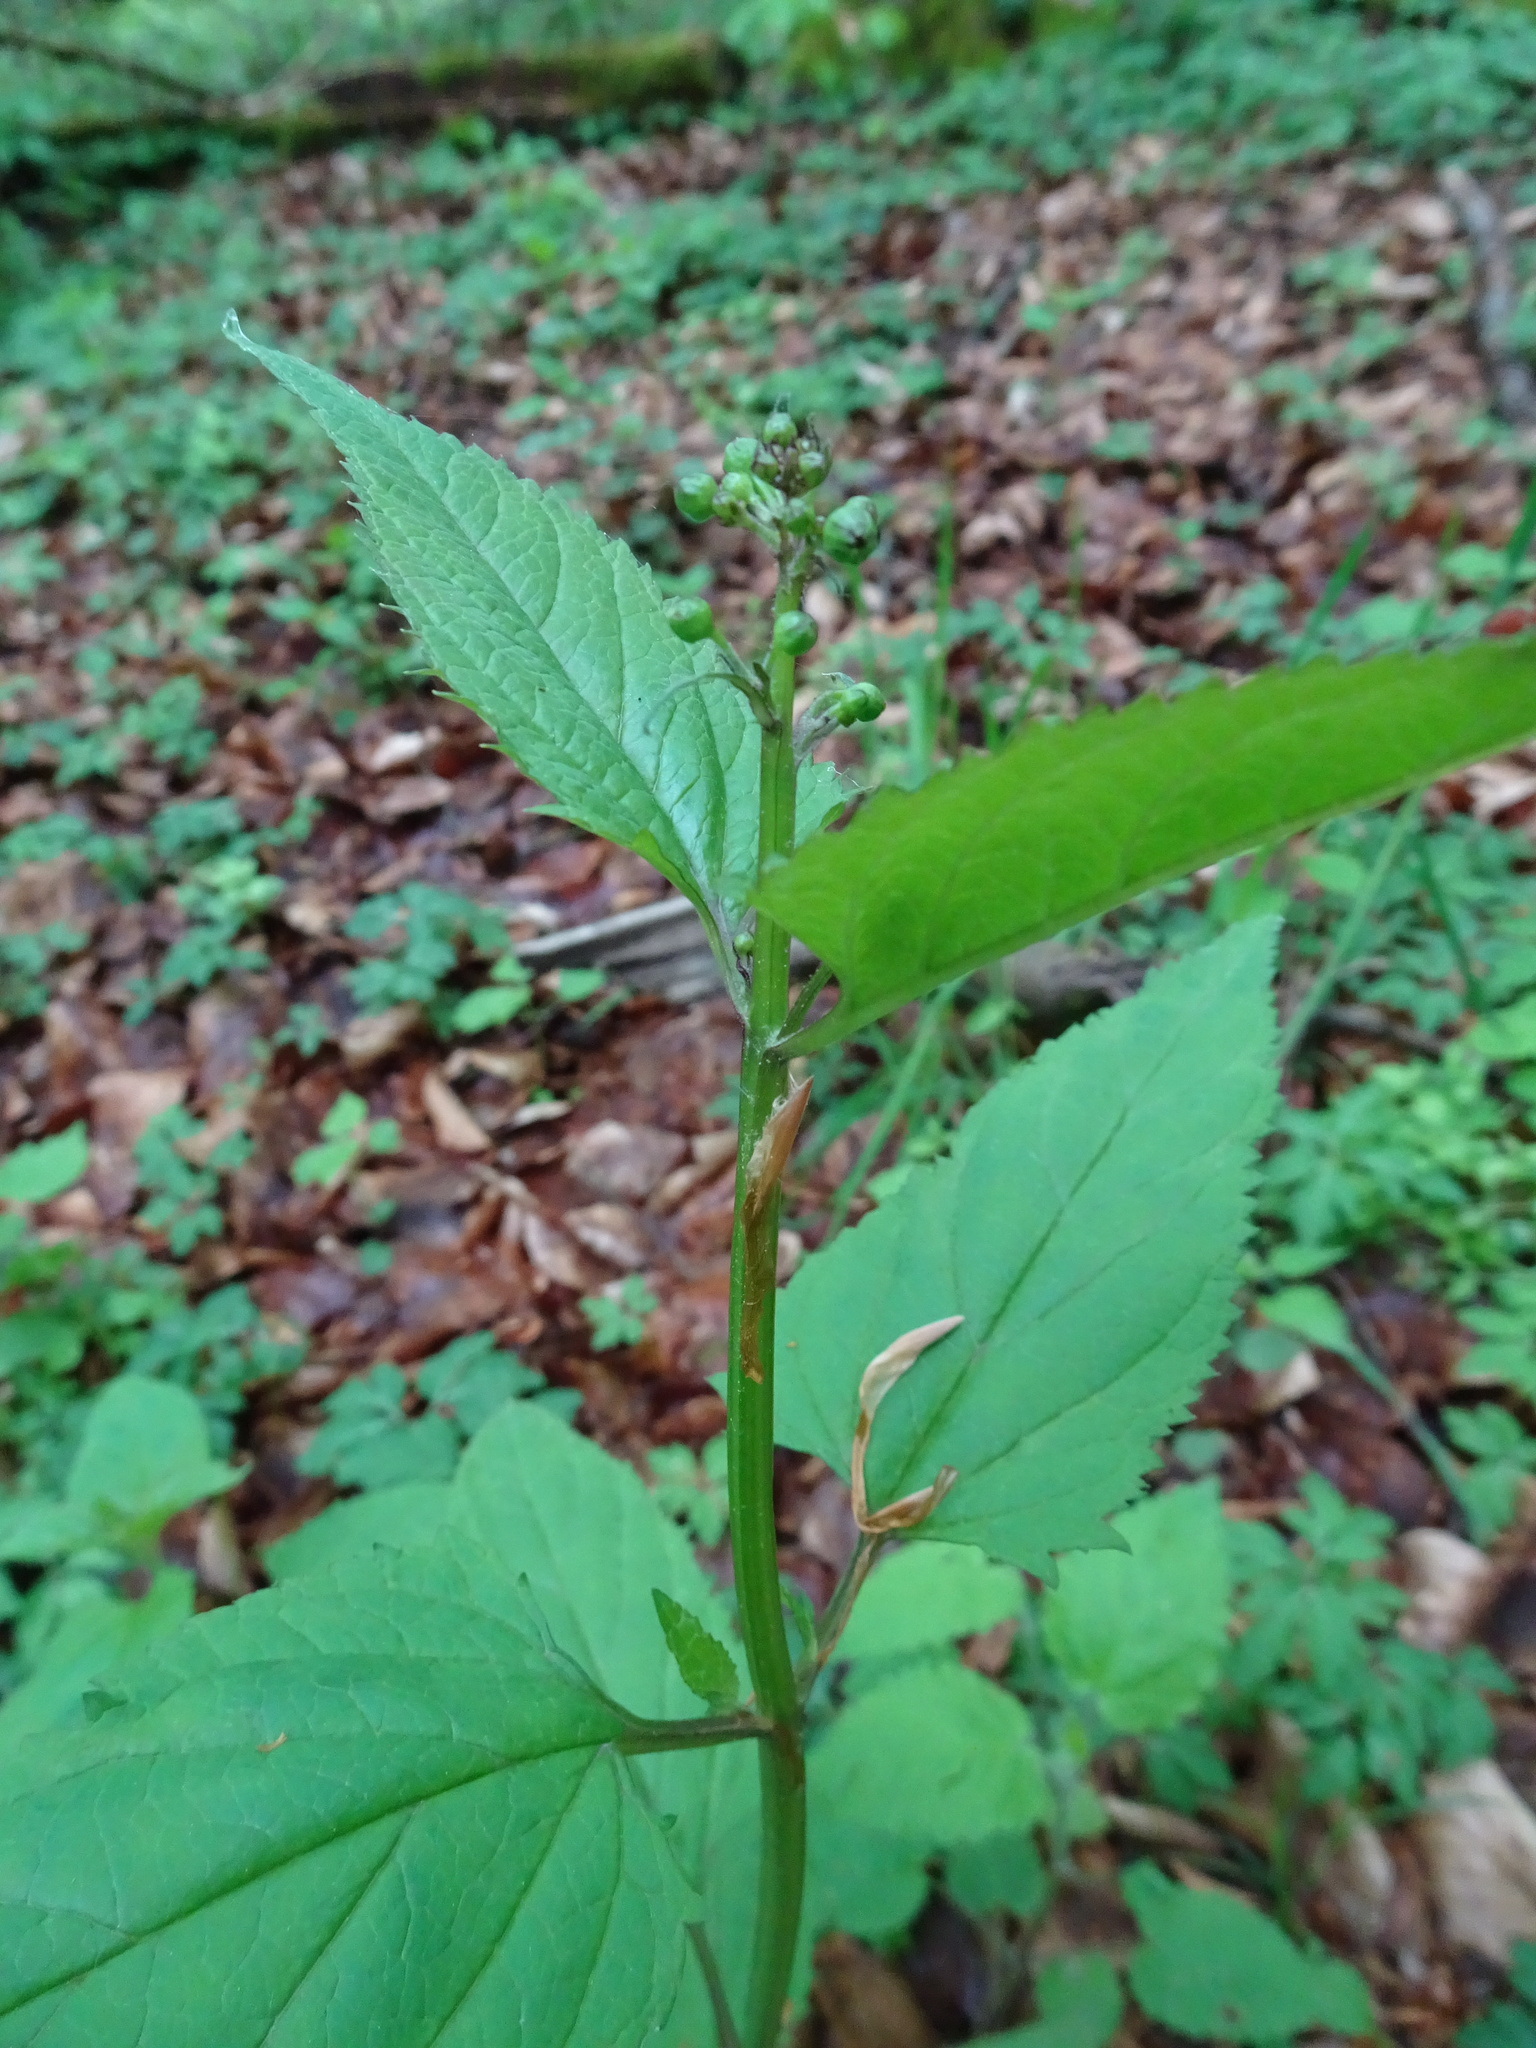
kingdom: Plantae
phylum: Tracheophyta
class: Magnoliopsida
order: Lamiales
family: Scrophulariaceae
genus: Scrophularia
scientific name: Scrophularia nodosa
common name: Common figwort
